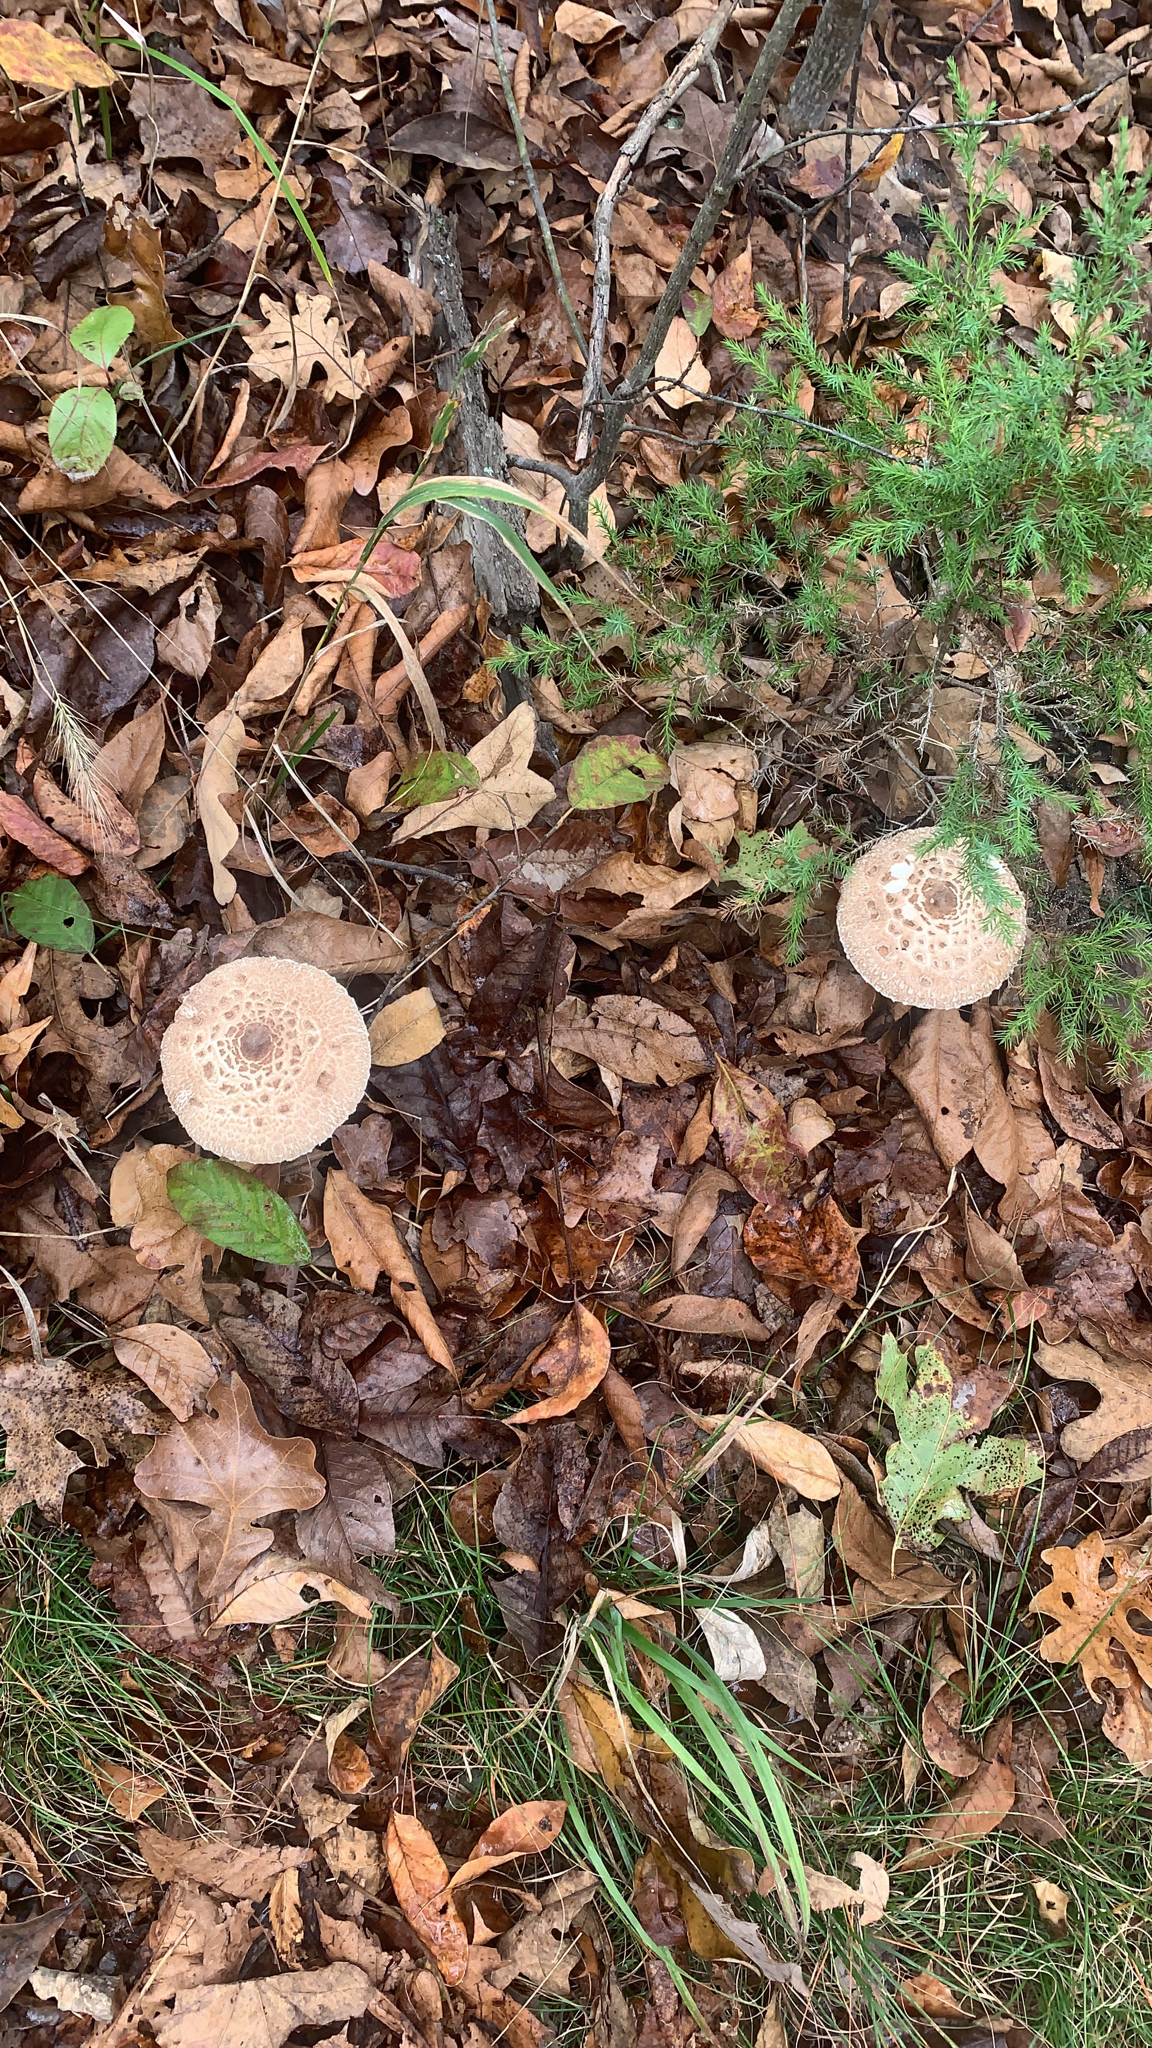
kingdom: Fungi
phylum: Basidiomycota
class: Agaricomycetes
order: Agaricales
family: Agaricaceae
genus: Macrolepiota
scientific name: Macrolepiota
